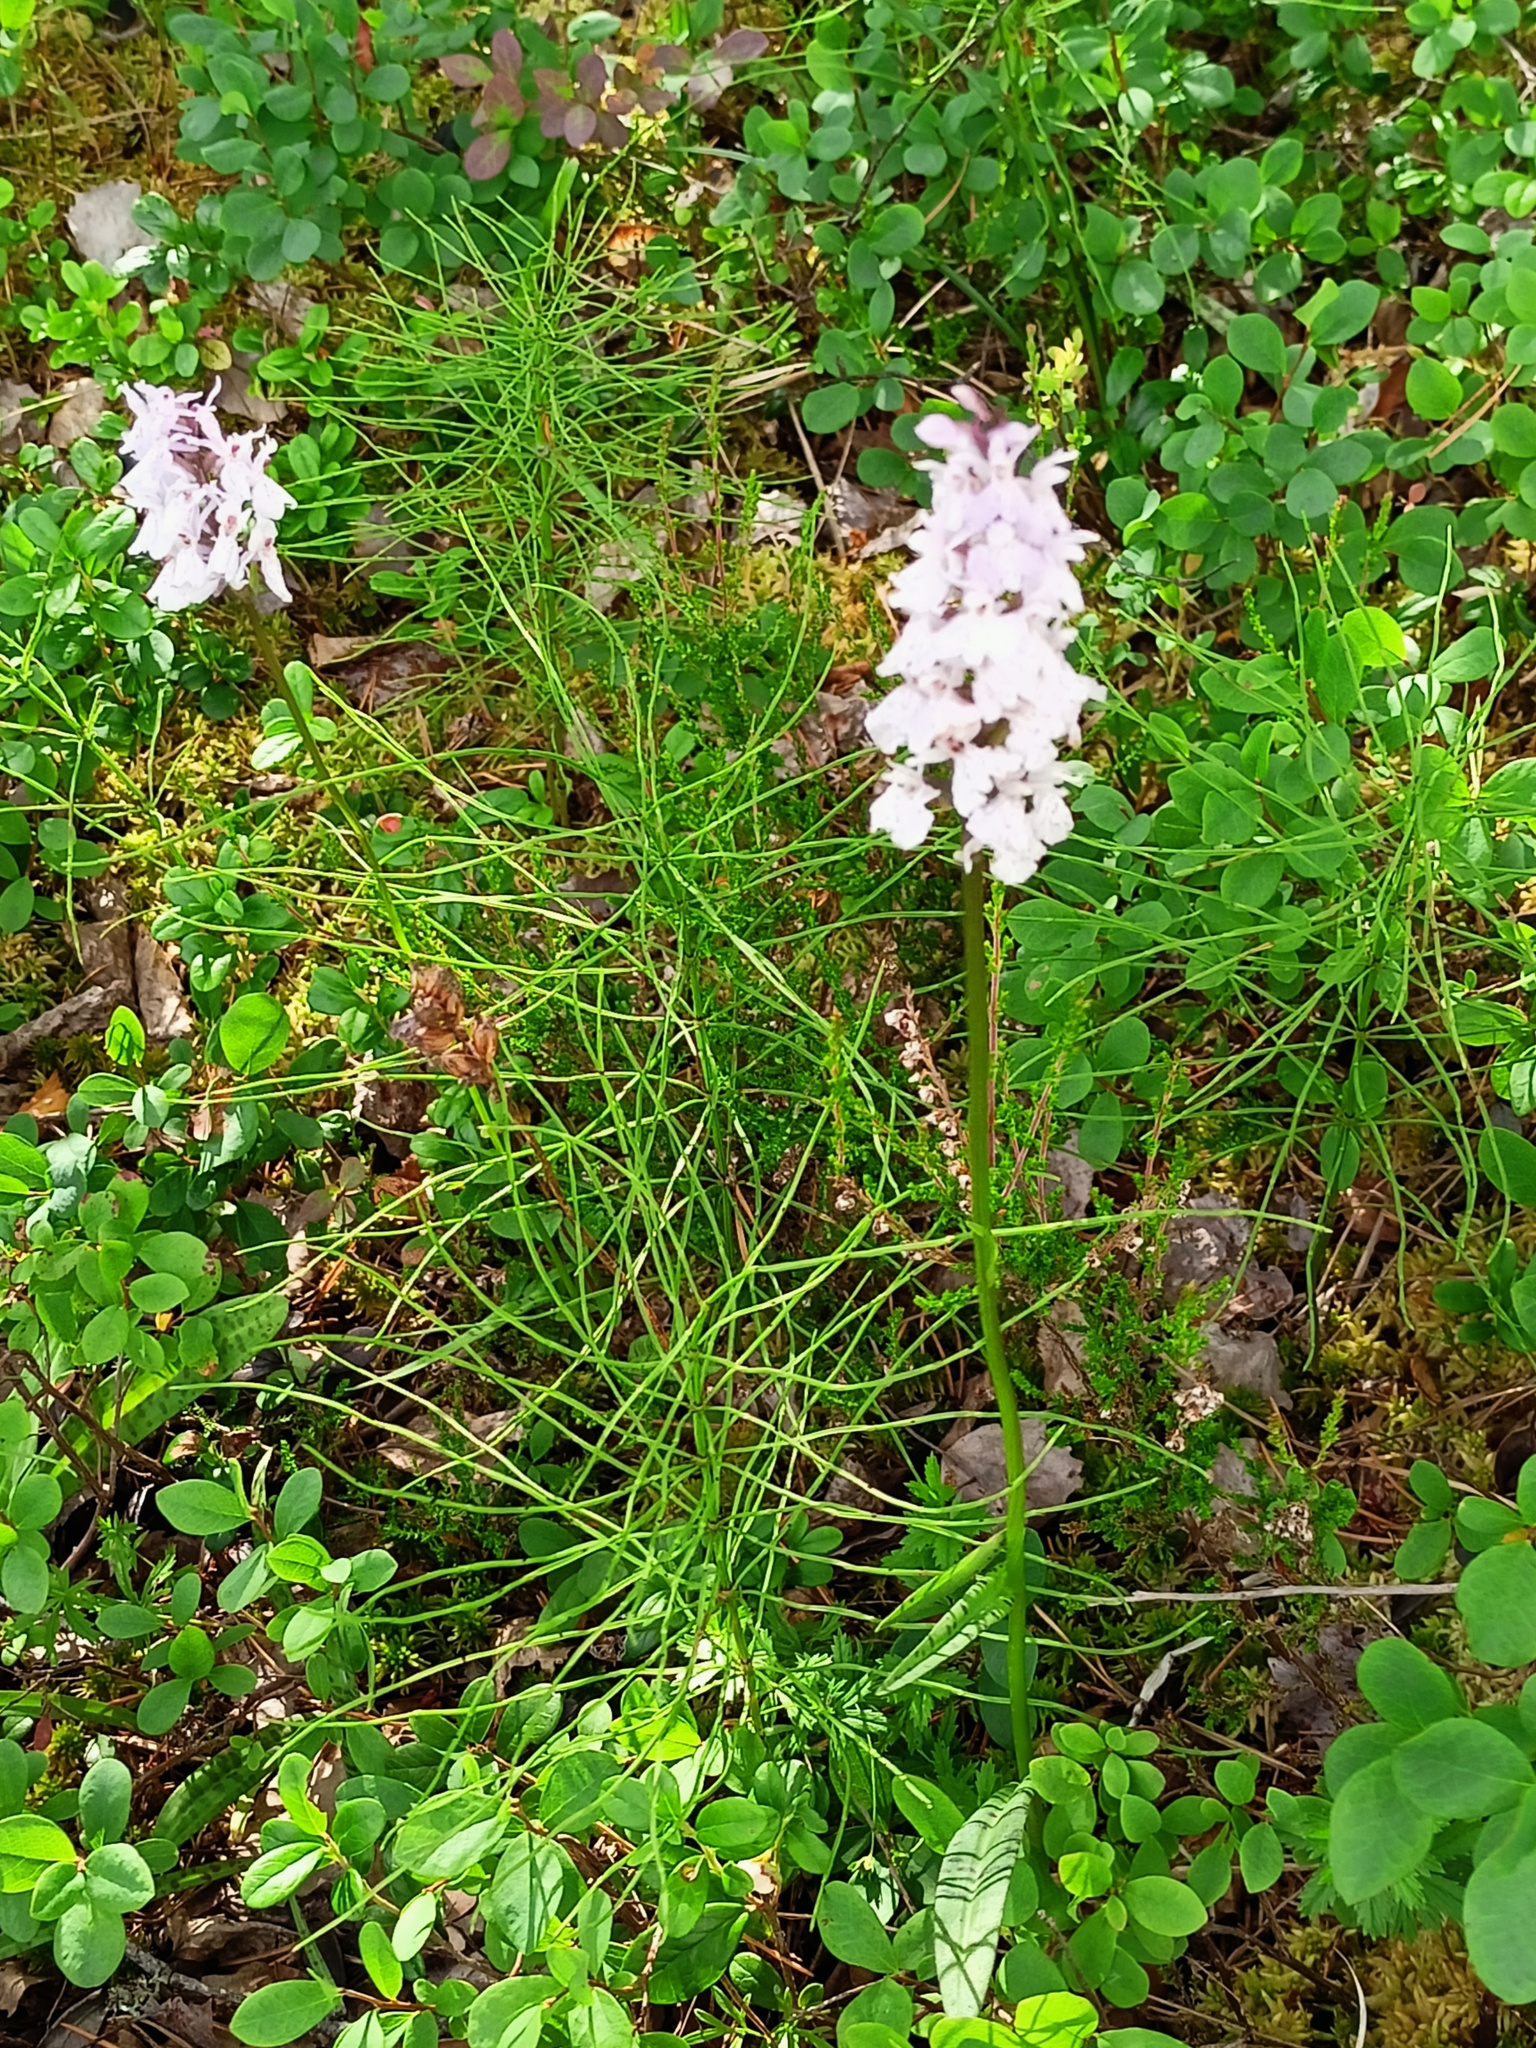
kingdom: Plantae
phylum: Tracheophyta
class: Liliopsida
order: Asparagales
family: Orchidaceae
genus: Dactylorhiza
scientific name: Dactylorhiza maculata
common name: Heath spotted-orchid
